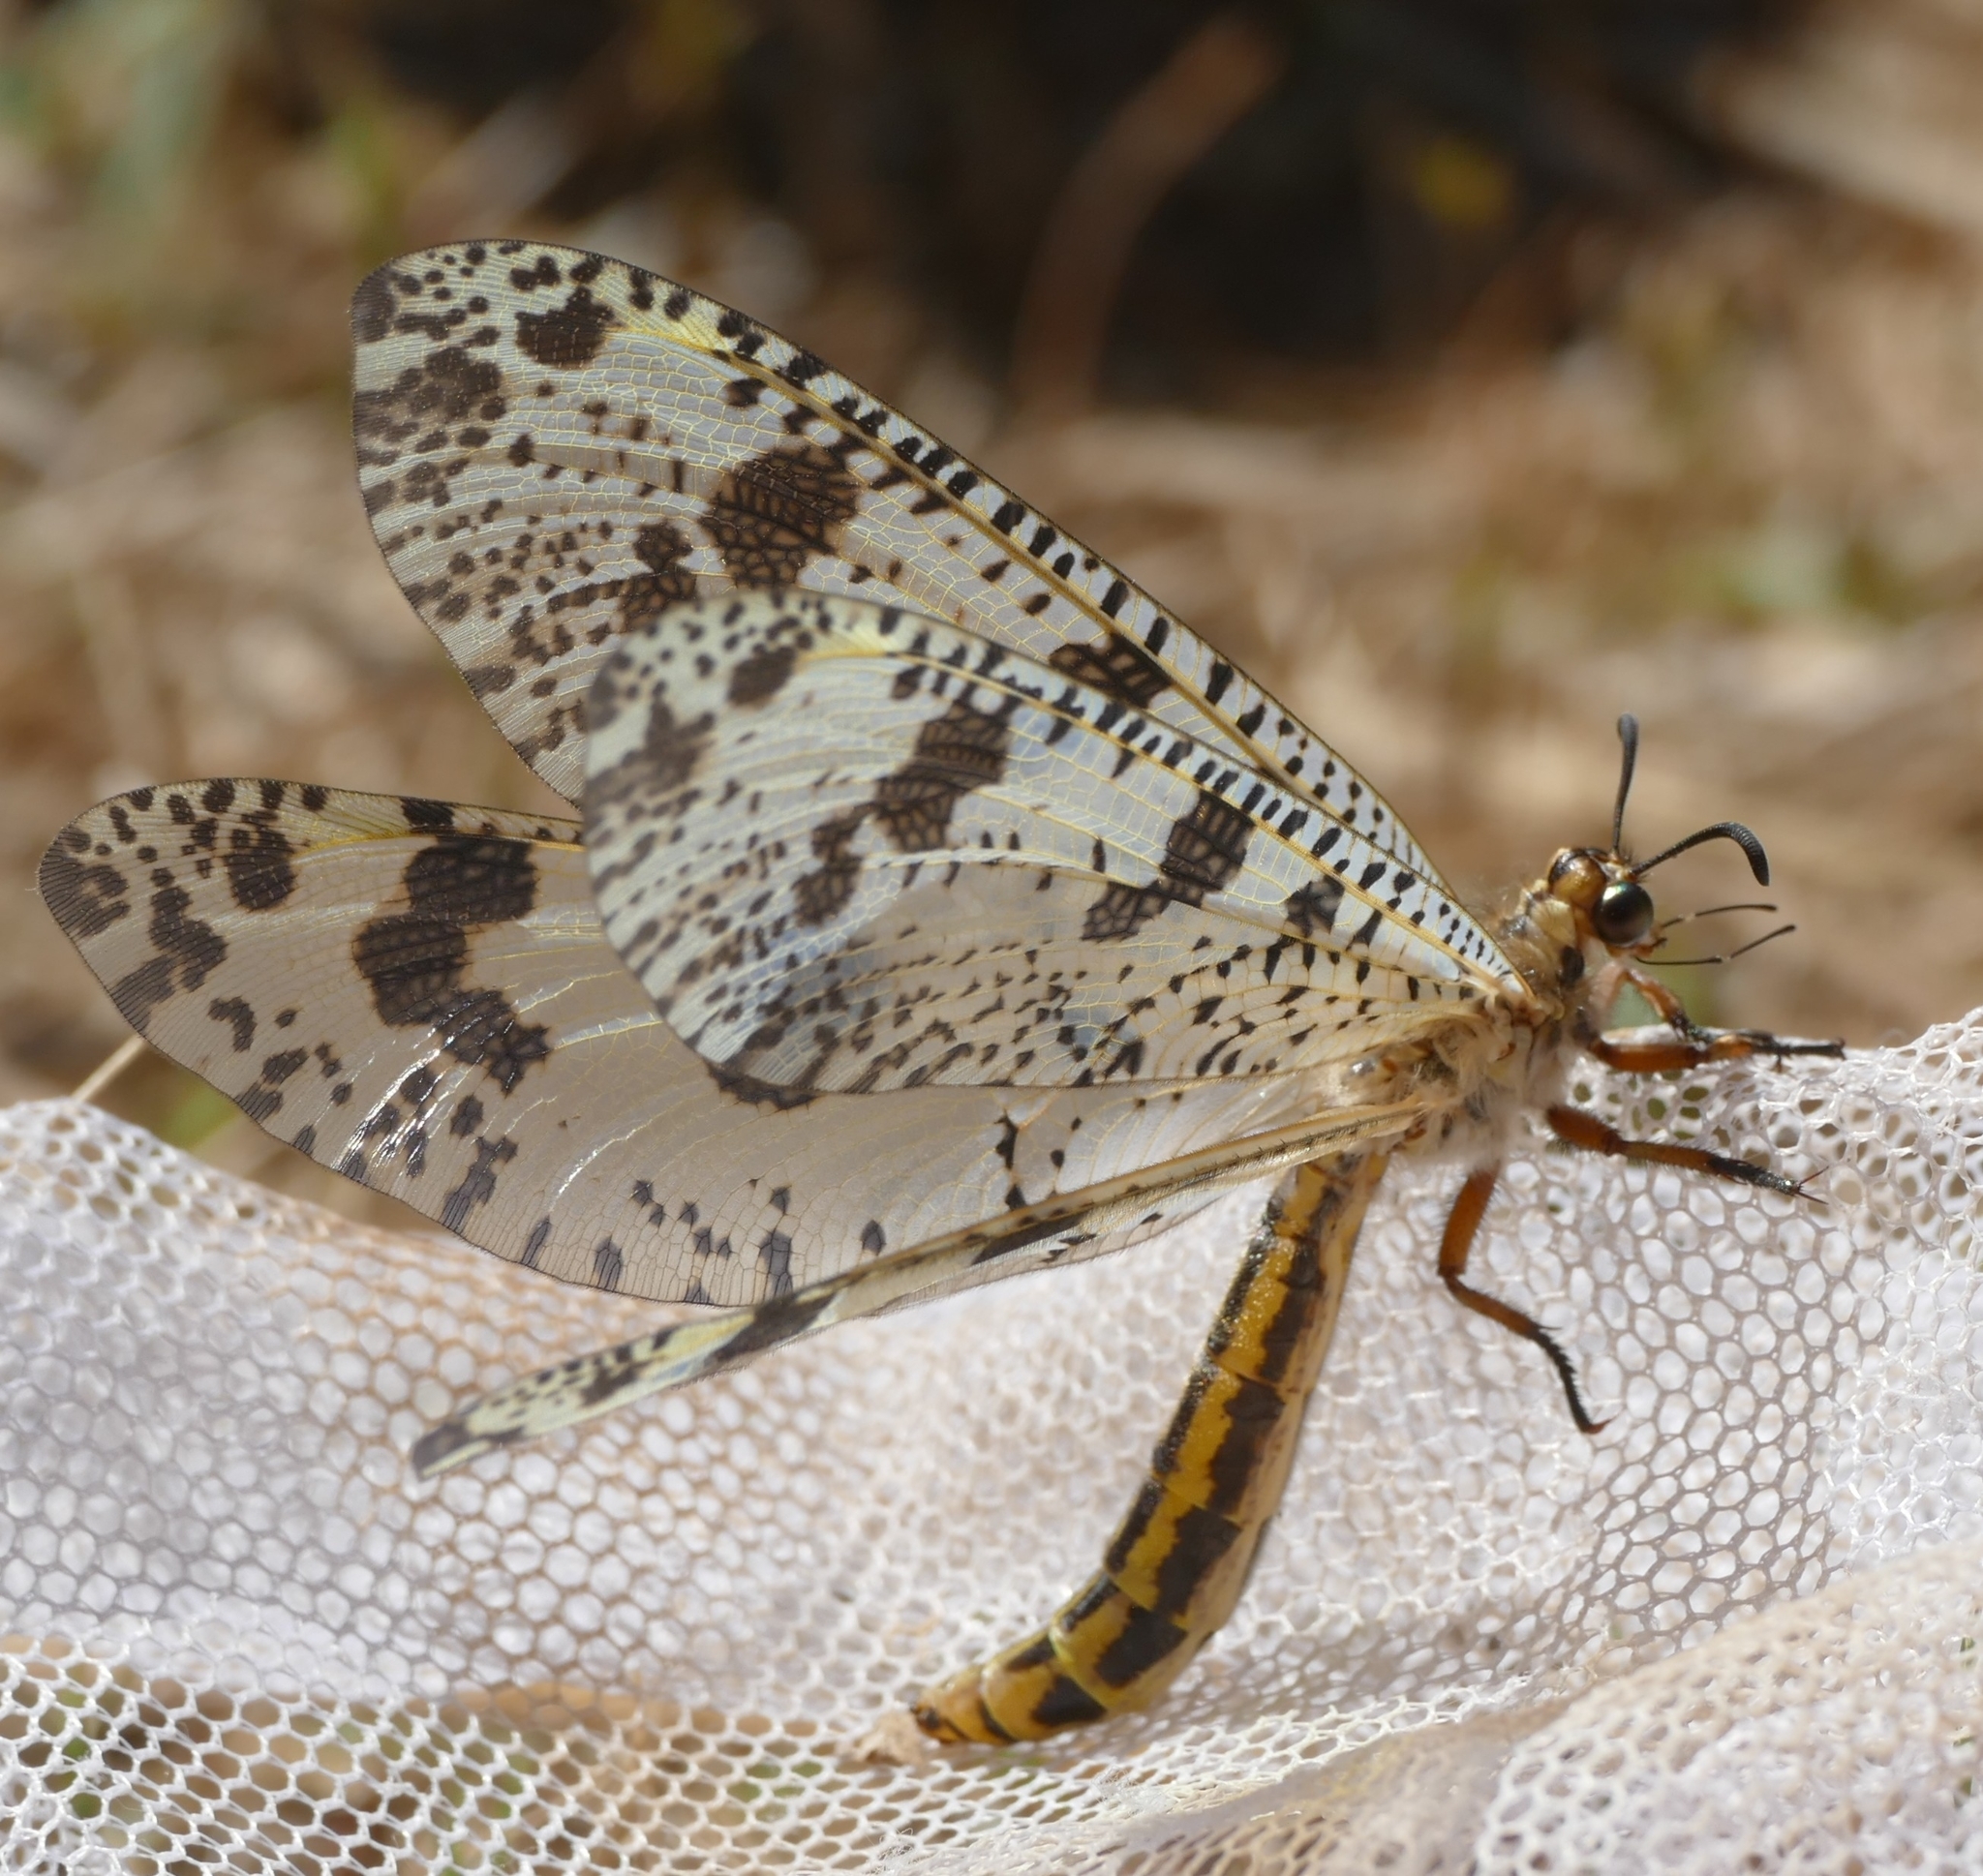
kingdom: Animalia
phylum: Arthropoda
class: Insecta
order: Neuroptera
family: Myrmeleontidae
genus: Palpares
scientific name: Palpares libelluloides
